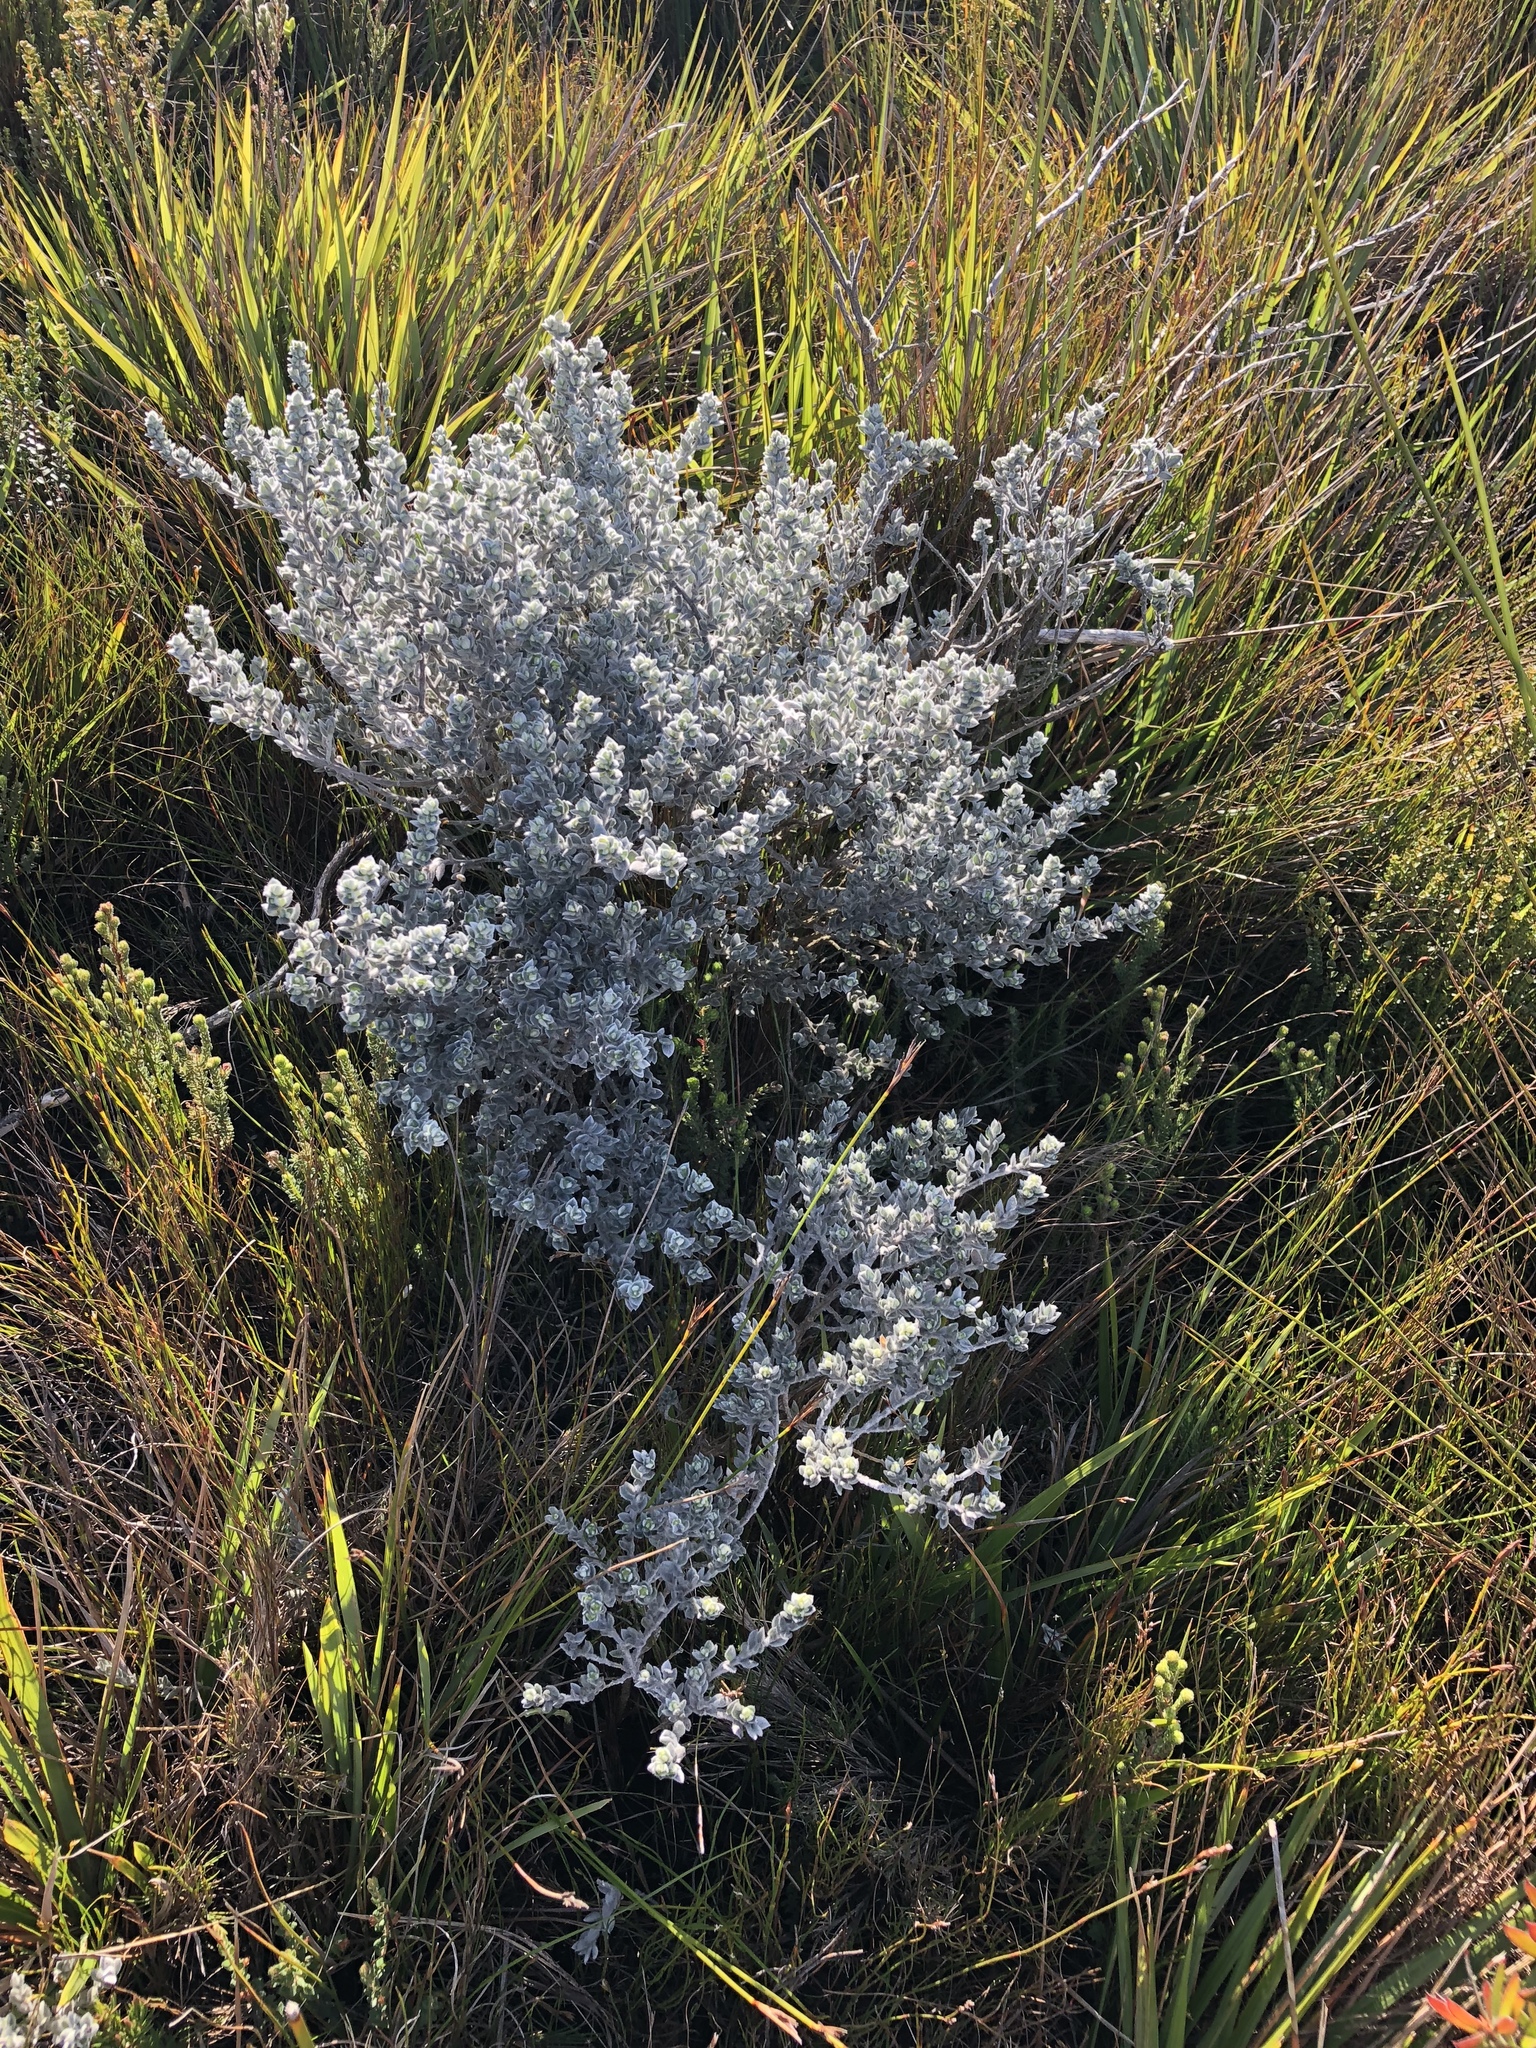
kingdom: Plantae
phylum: Tracheophyta
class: Magnoliopsida
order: Fabales
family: Fabaceae
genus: Amphithalea
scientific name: Amphithalea phylicoides
